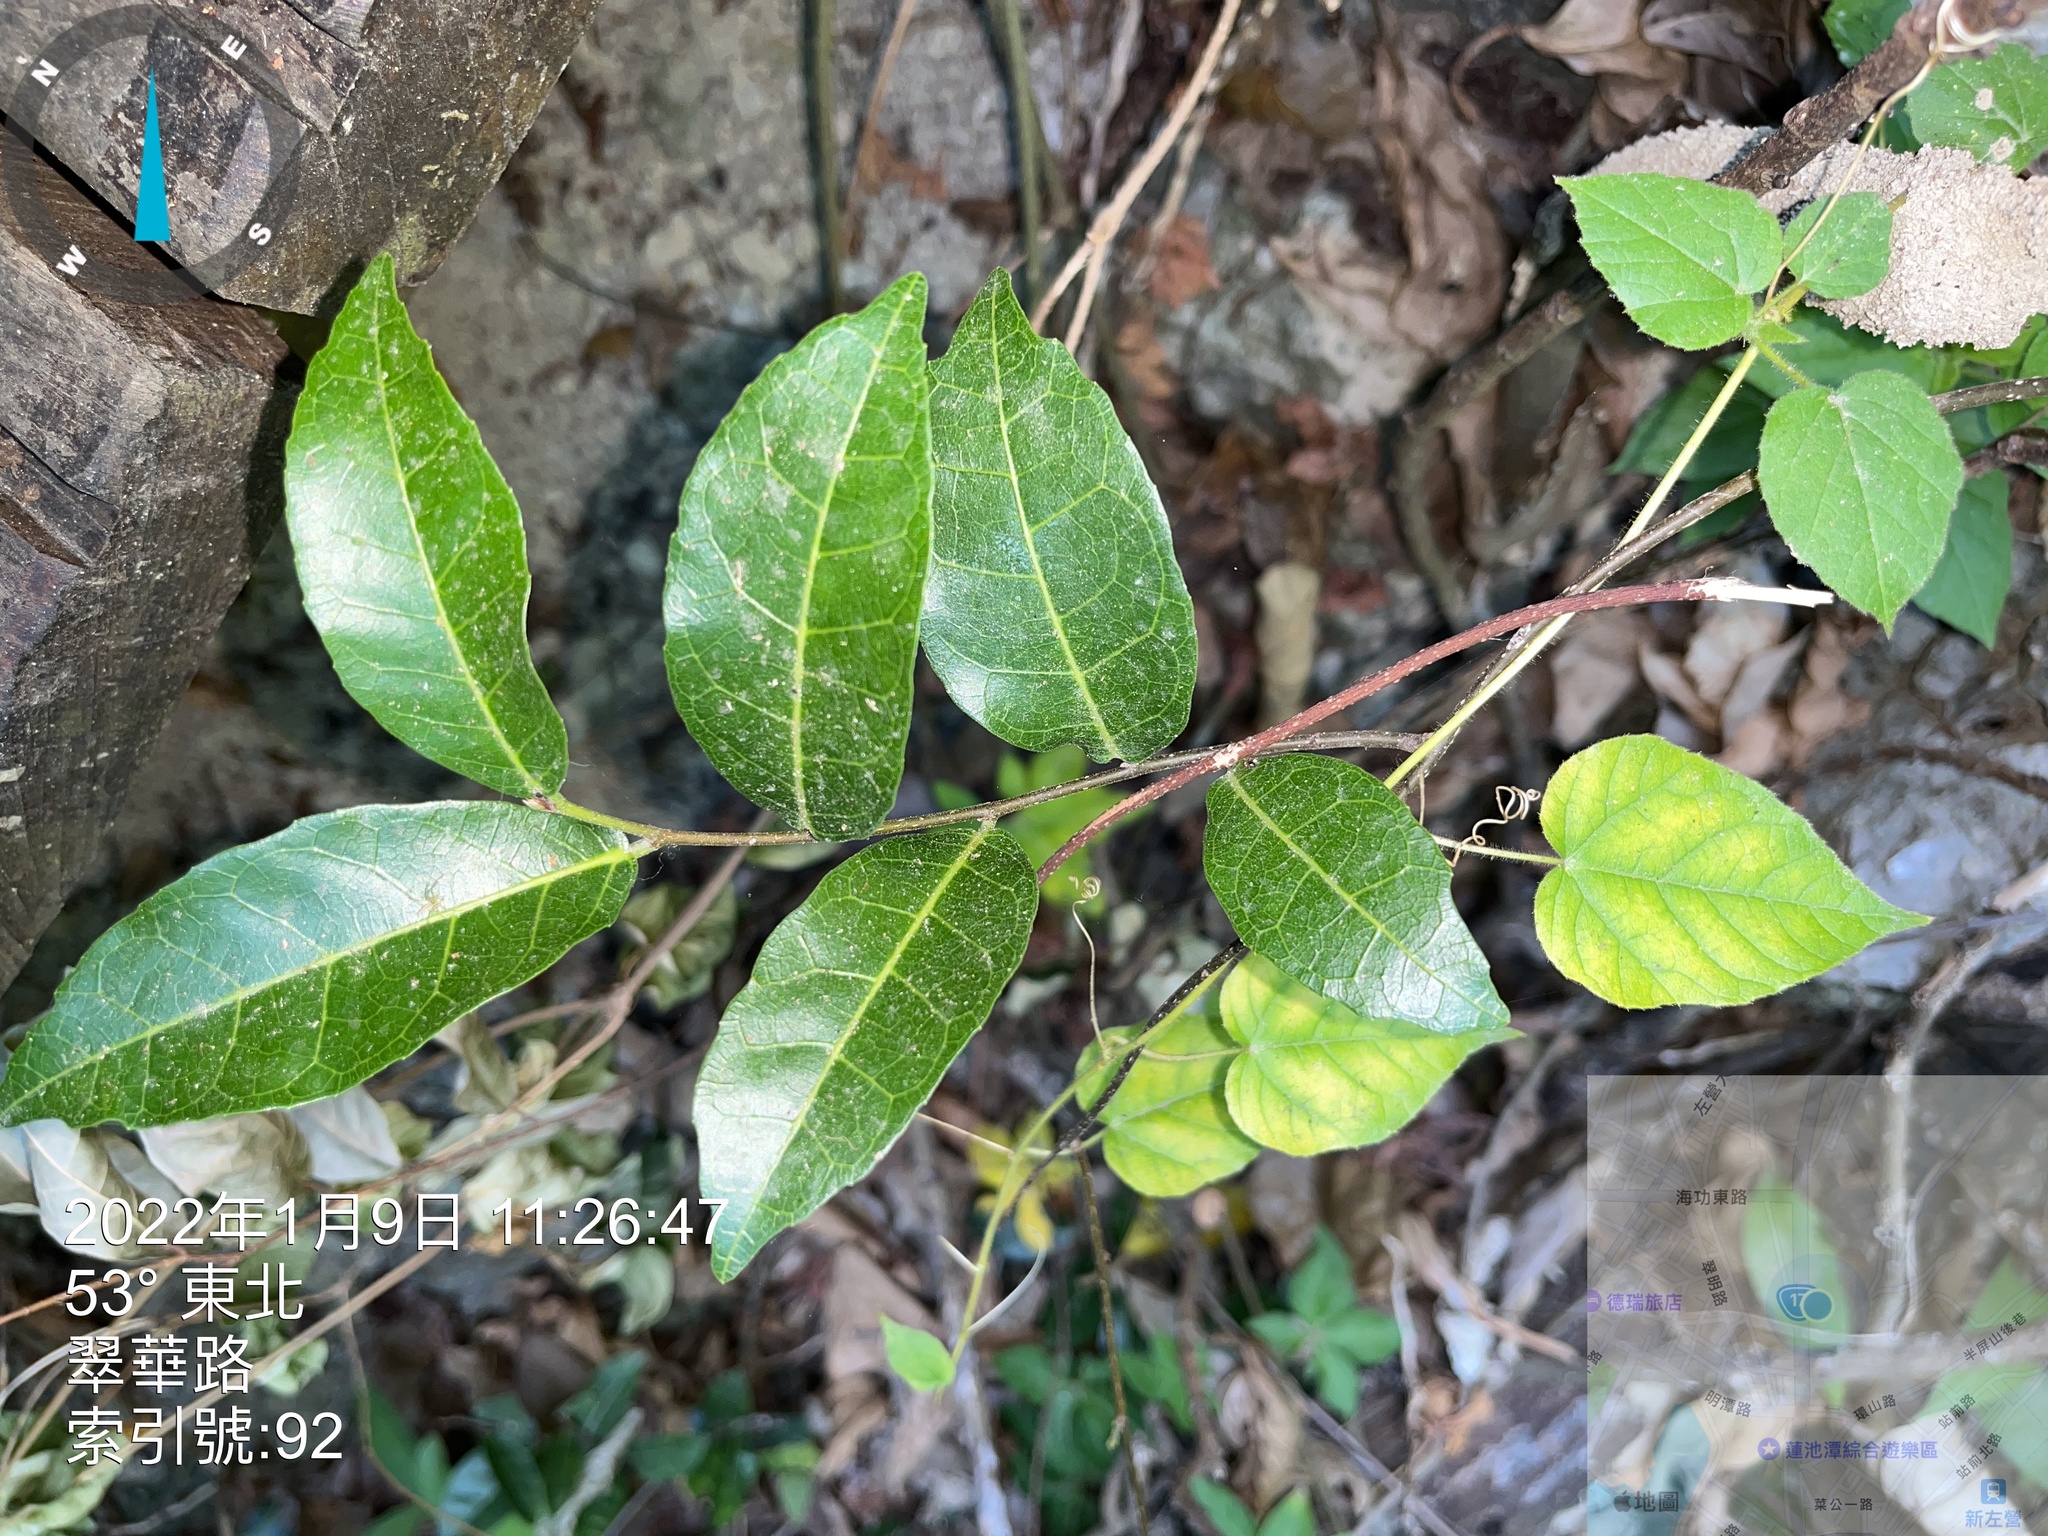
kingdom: Plantae
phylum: Tracheophyta
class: Magnoliopsida
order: Rosales
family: Moraceae
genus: Malaisia
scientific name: Malaisia scandens
